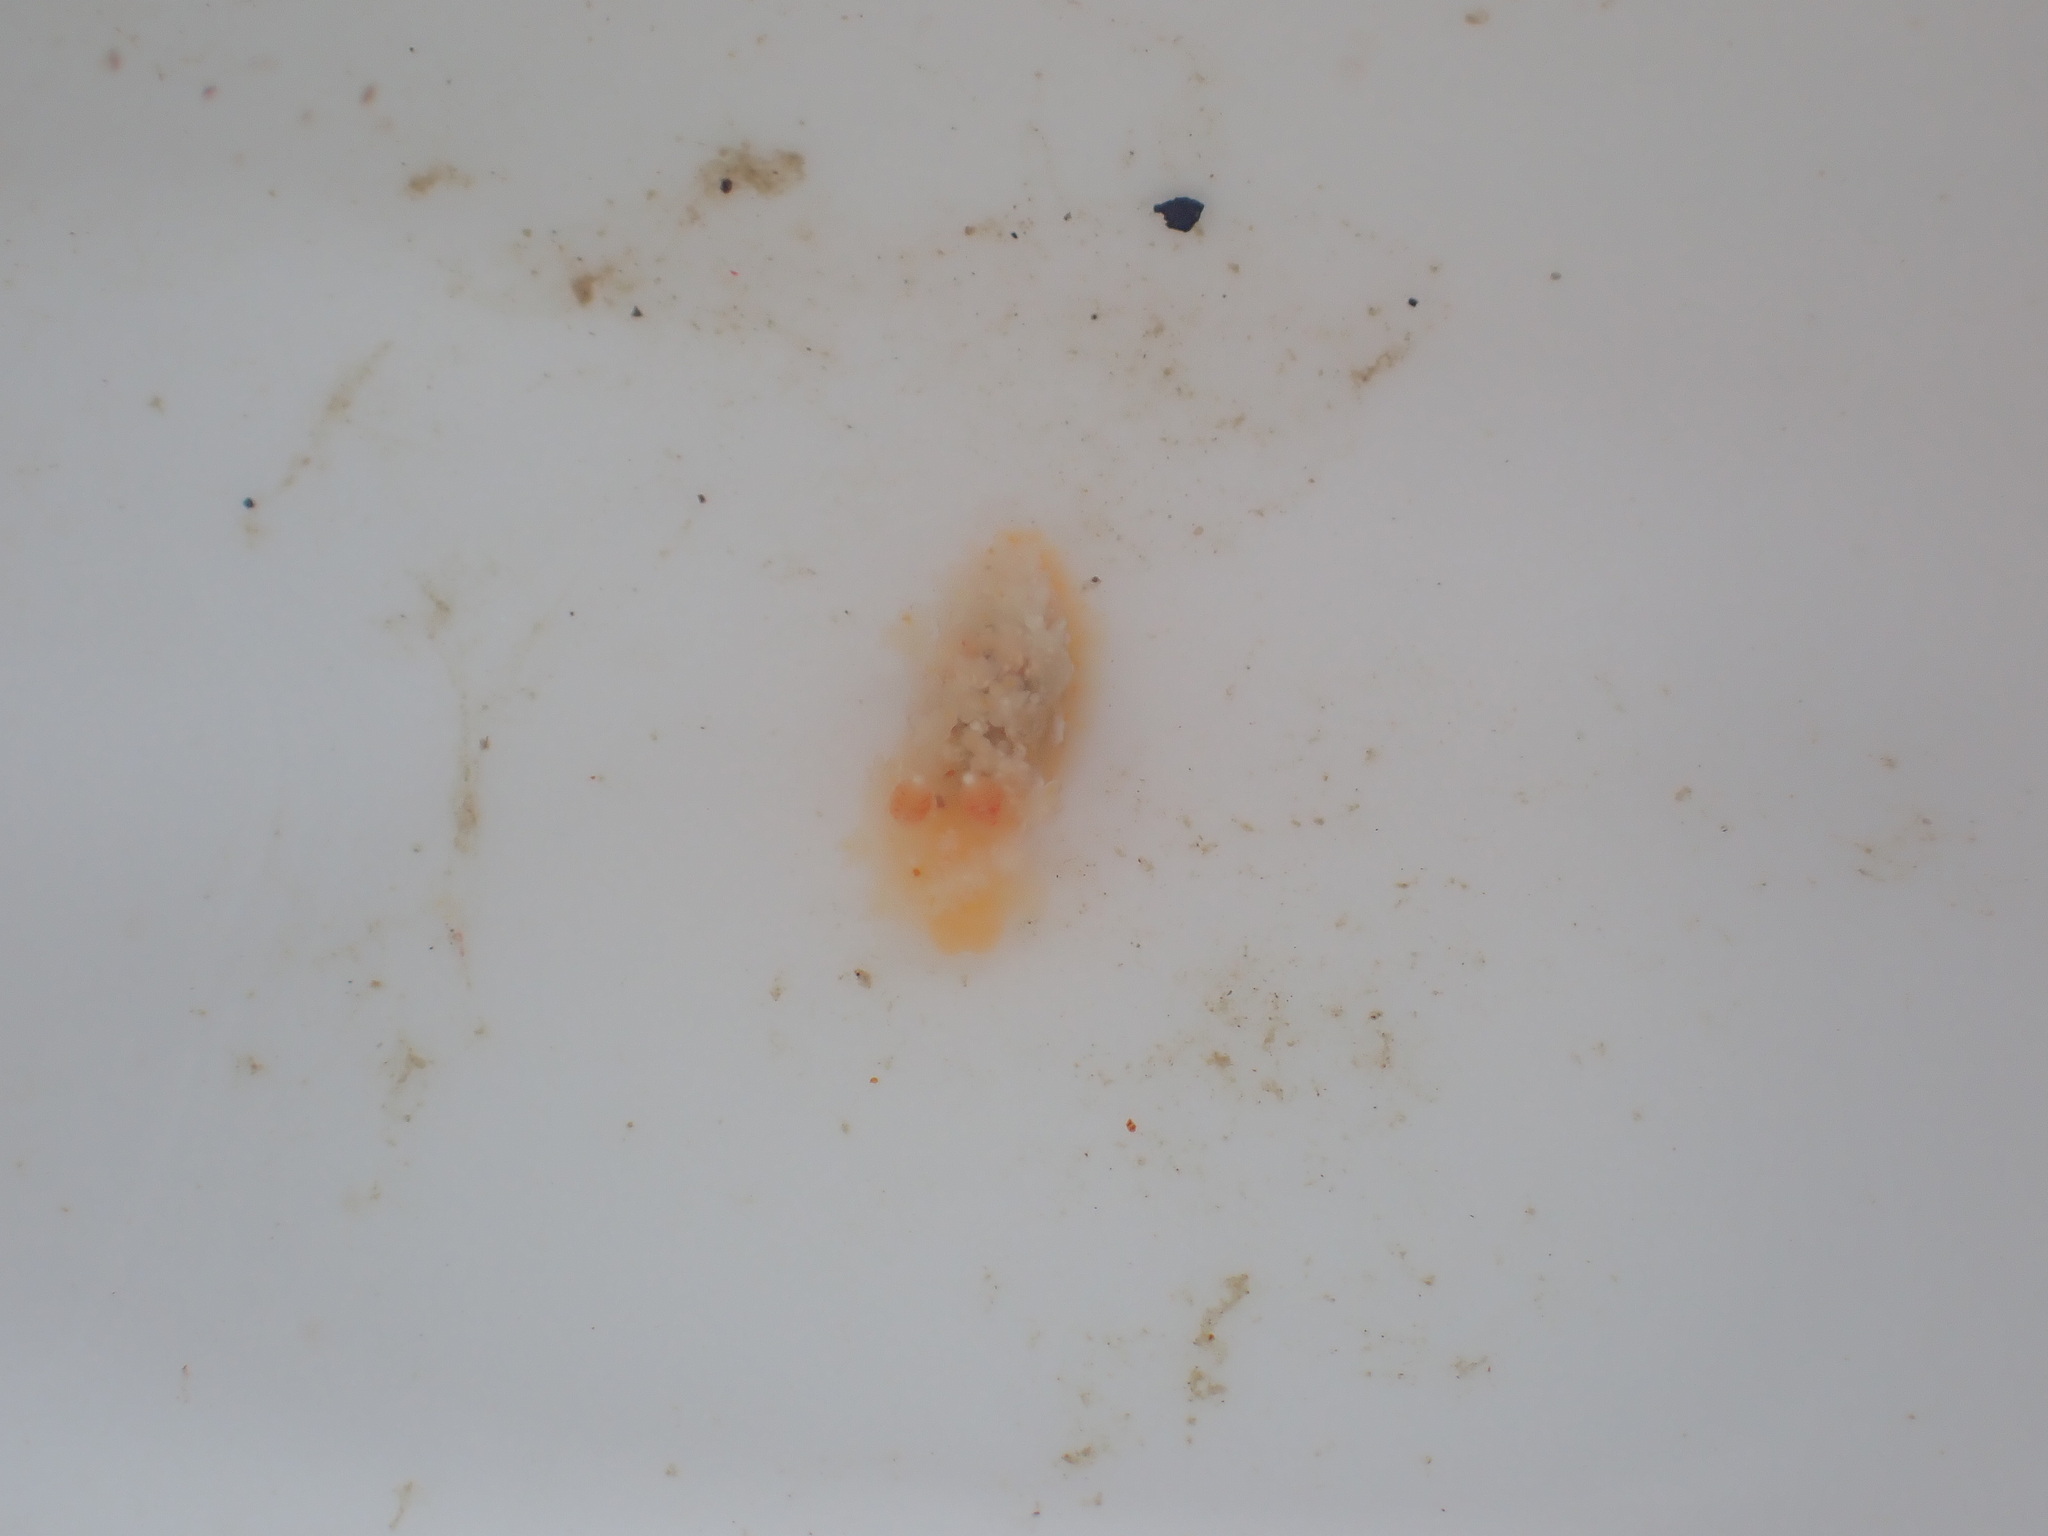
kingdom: Animalia
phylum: Mollusca
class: Gastropoda
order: Nudibranchia
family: Polyceridae
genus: Kaloplocamus
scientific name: Kaloplocamus ramosus
